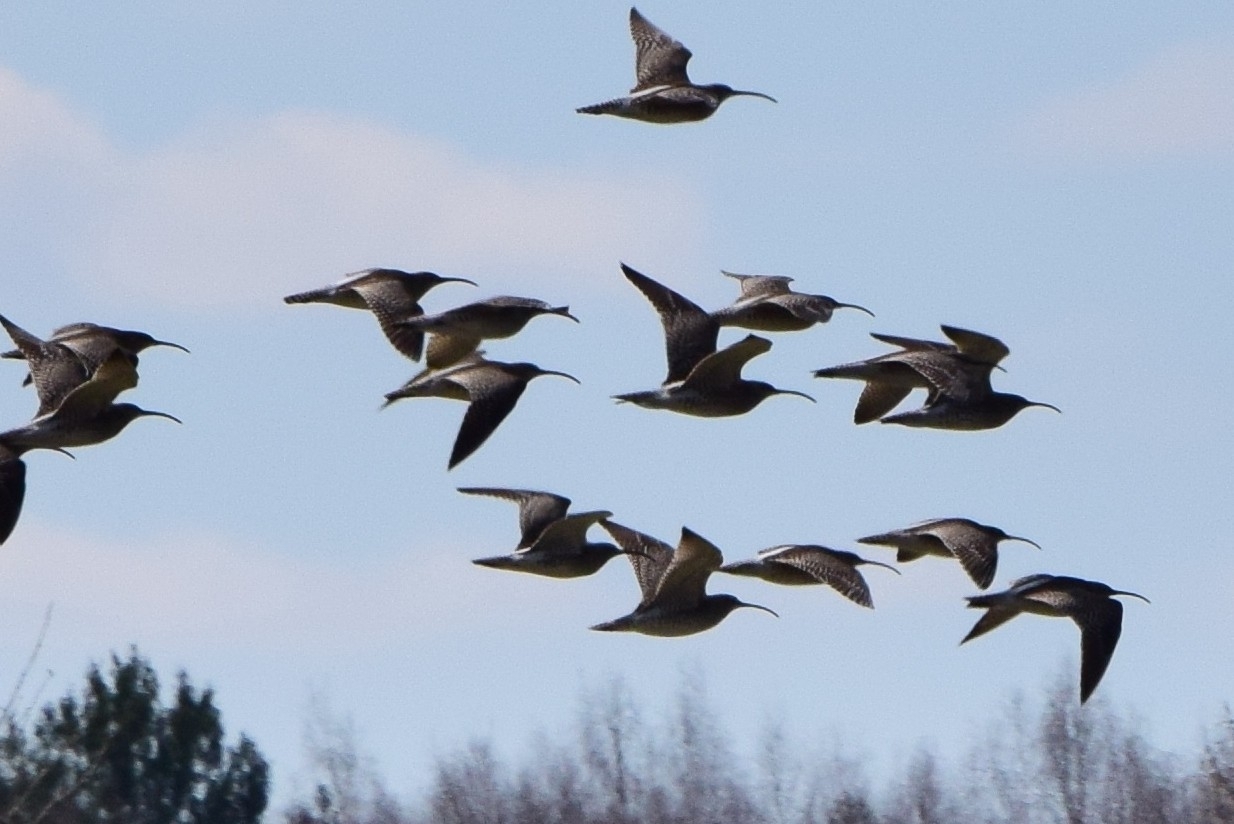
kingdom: Animalia
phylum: Chordata
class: Aves
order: Charadriiformes
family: Scolopacidae
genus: Numenius
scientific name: Numenius phaeopus
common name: Whimbrel
